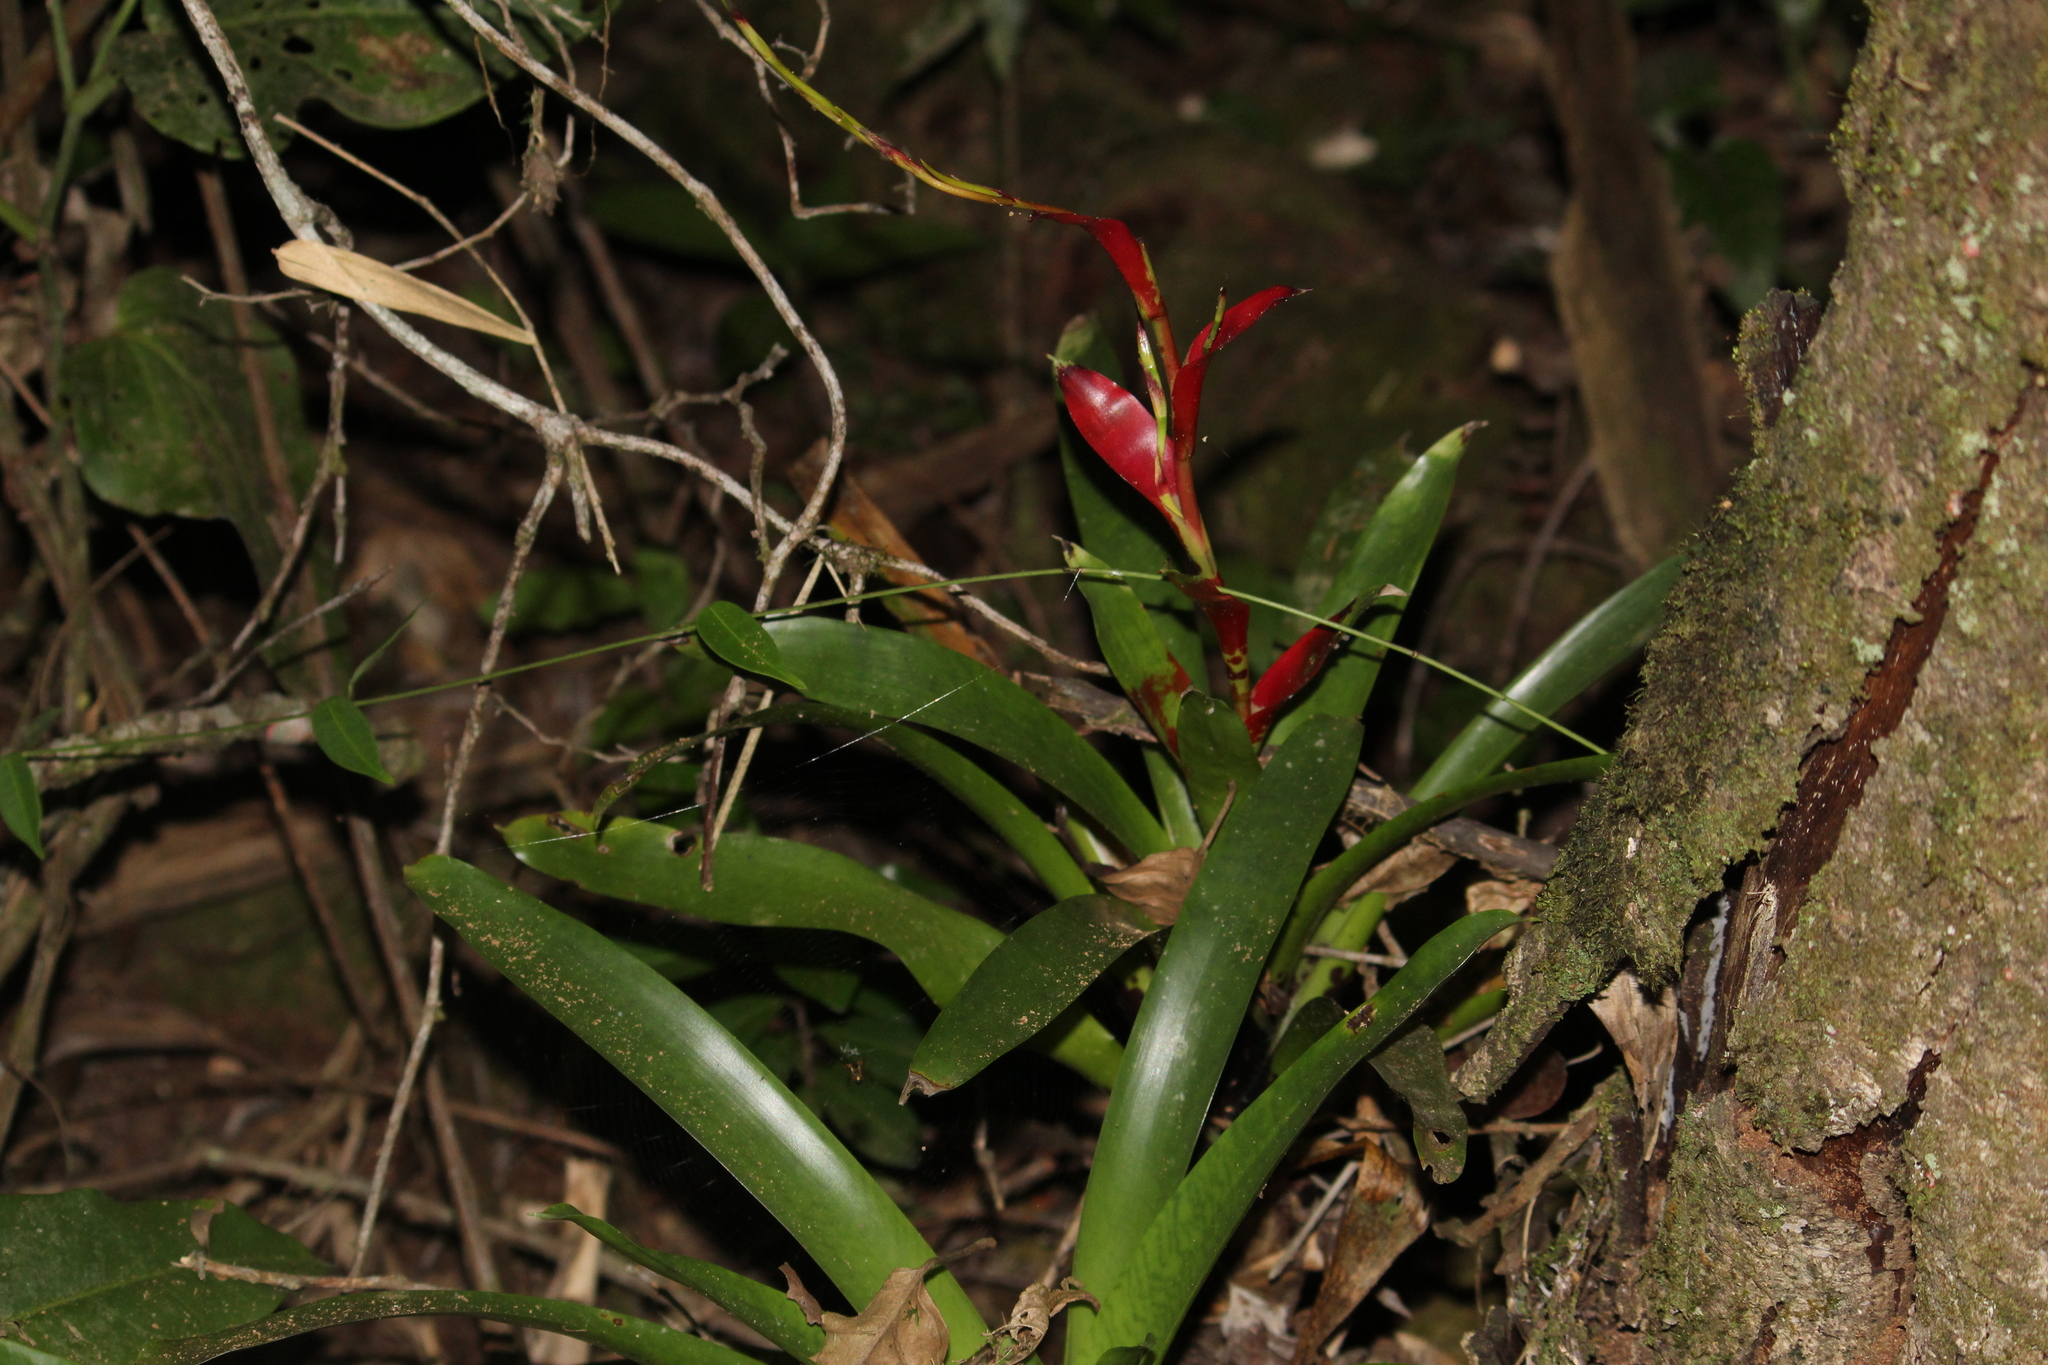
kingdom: Plantae
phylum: Tracheophyta
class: Liliopsida
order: Poales
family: Bromeliaceae
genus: Vriesea
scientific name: Vriesea vagans
